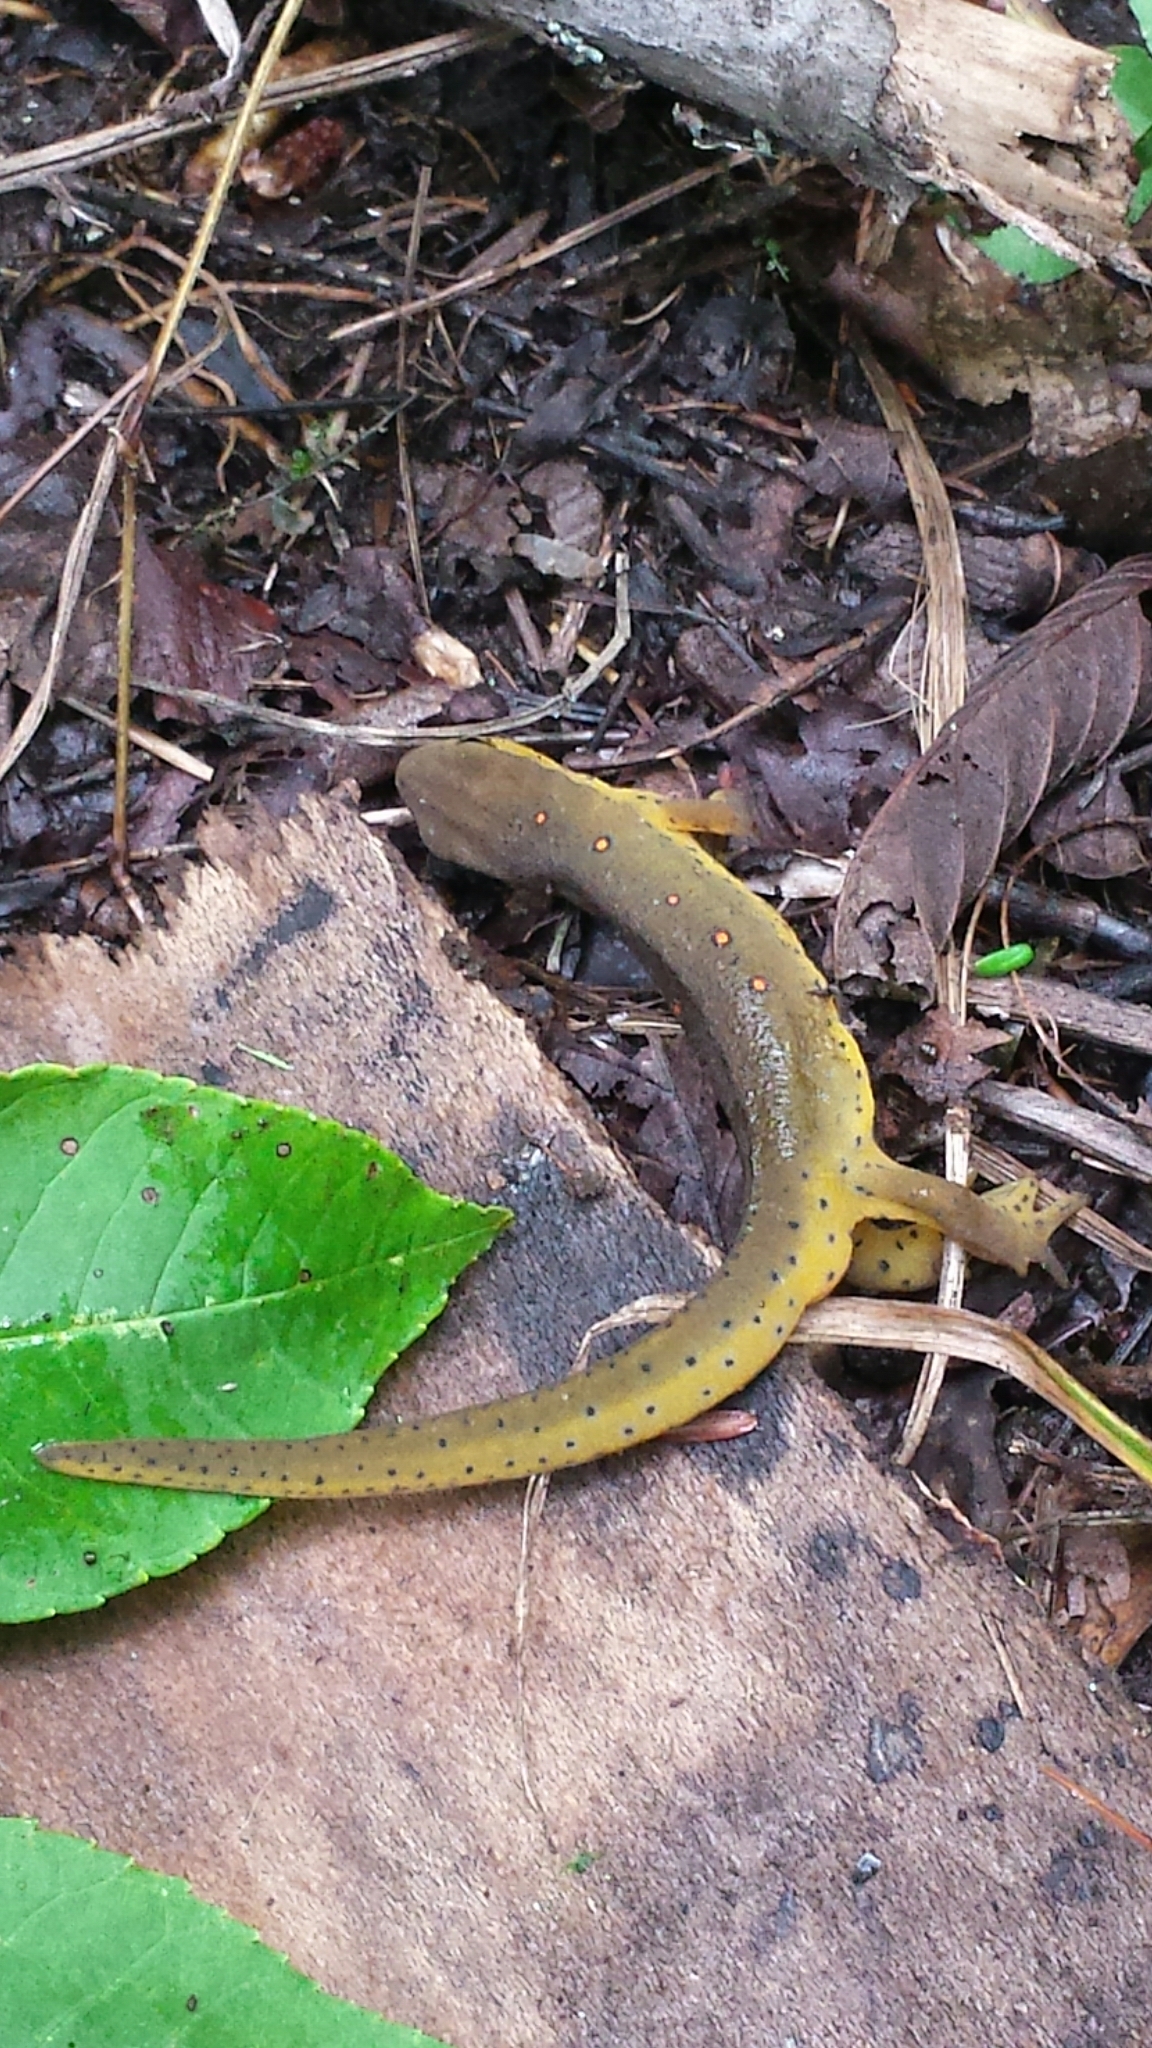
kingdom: Animalia
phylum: Chordata
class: Amphibia
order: Caudata
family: Salamandridae
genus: Notophthalmus
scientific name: Notophthalmus viridescens
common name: Eastern newt
